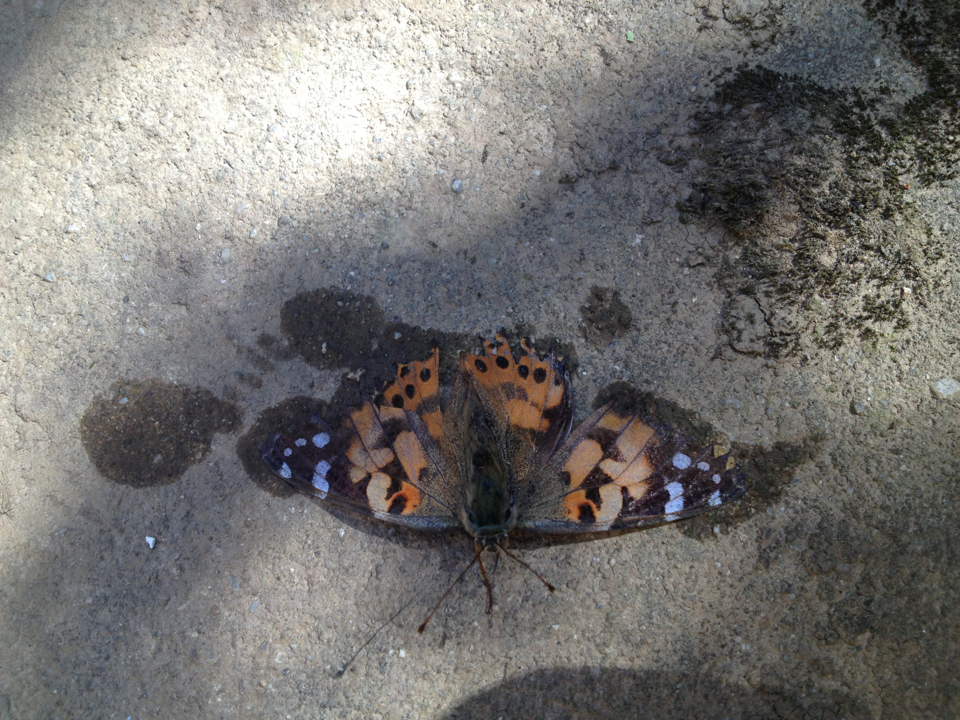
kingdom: Animalia
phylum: Arthropoda
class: Insecta
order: Lepidoptera
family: Nymphalidae
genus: Vanessa
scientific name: Vanessa cardui
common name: Painted lady
